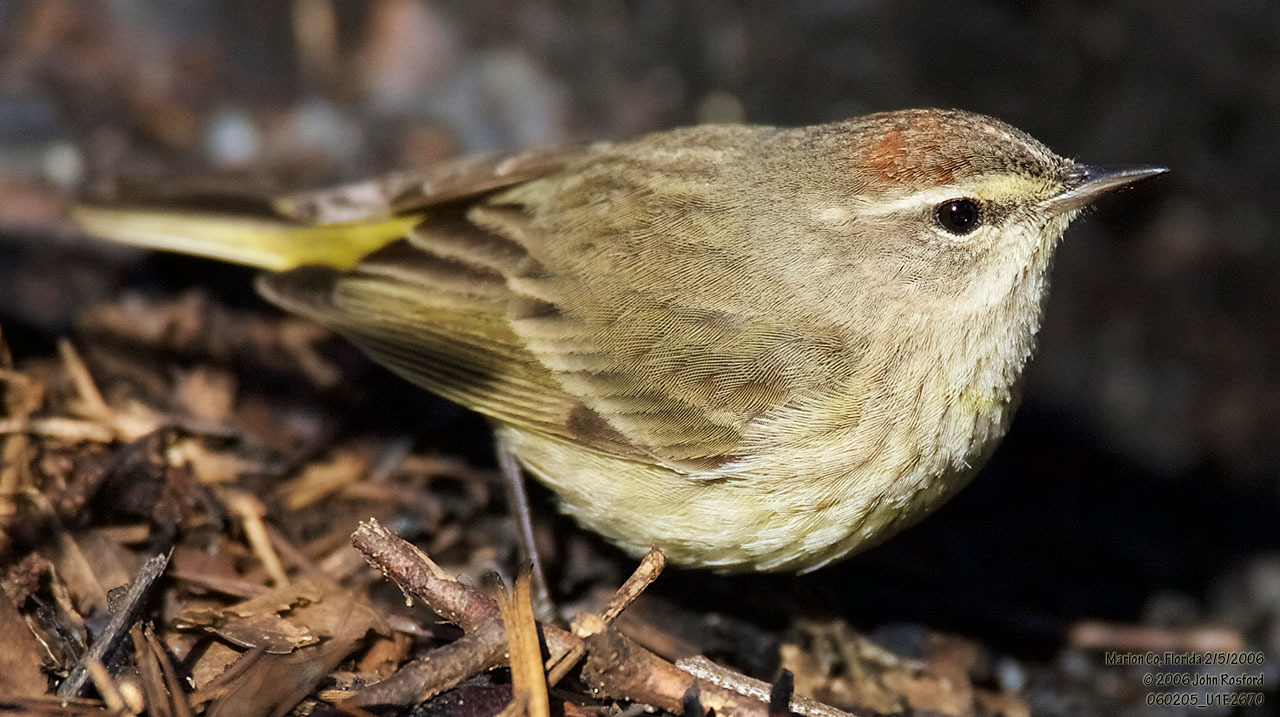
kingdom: Animalia
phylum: Chordata
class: Aves
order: Passeriformes
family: Parulidae
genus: Setophaga
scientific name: Setophaga palmarum
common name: Palm warbler
